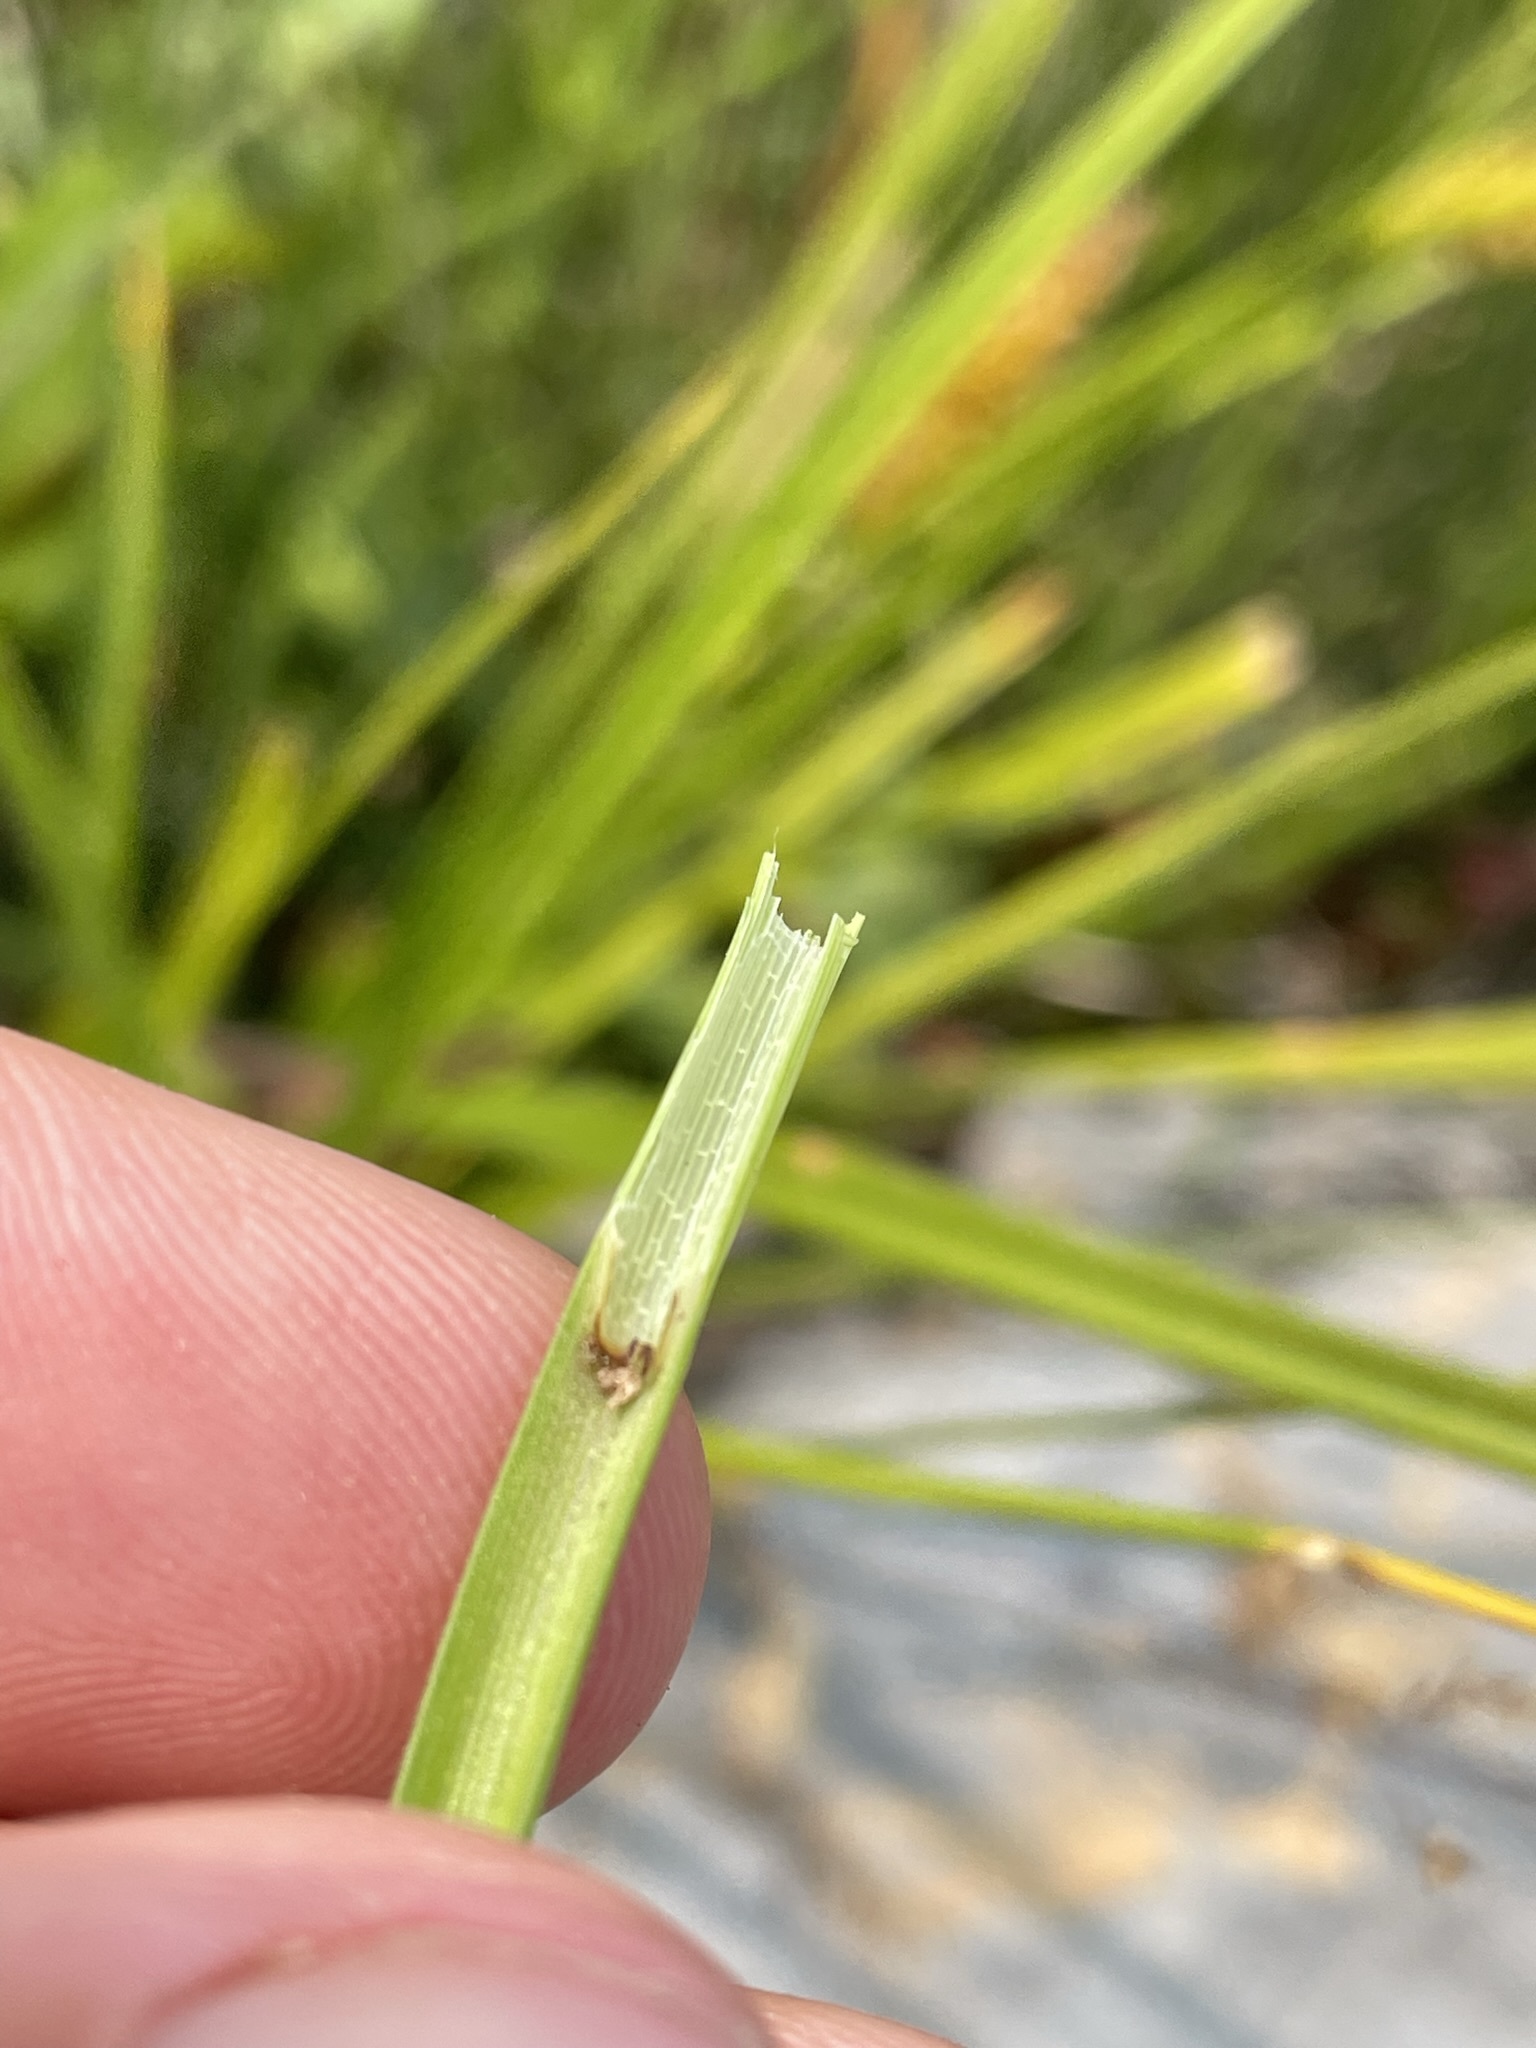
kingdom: Plantae
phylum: Tracheophyta
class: Liliopsida
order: Poales
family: Cyperaceae
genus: Carex
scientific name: Carex utriculata
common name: Beaked sedge
